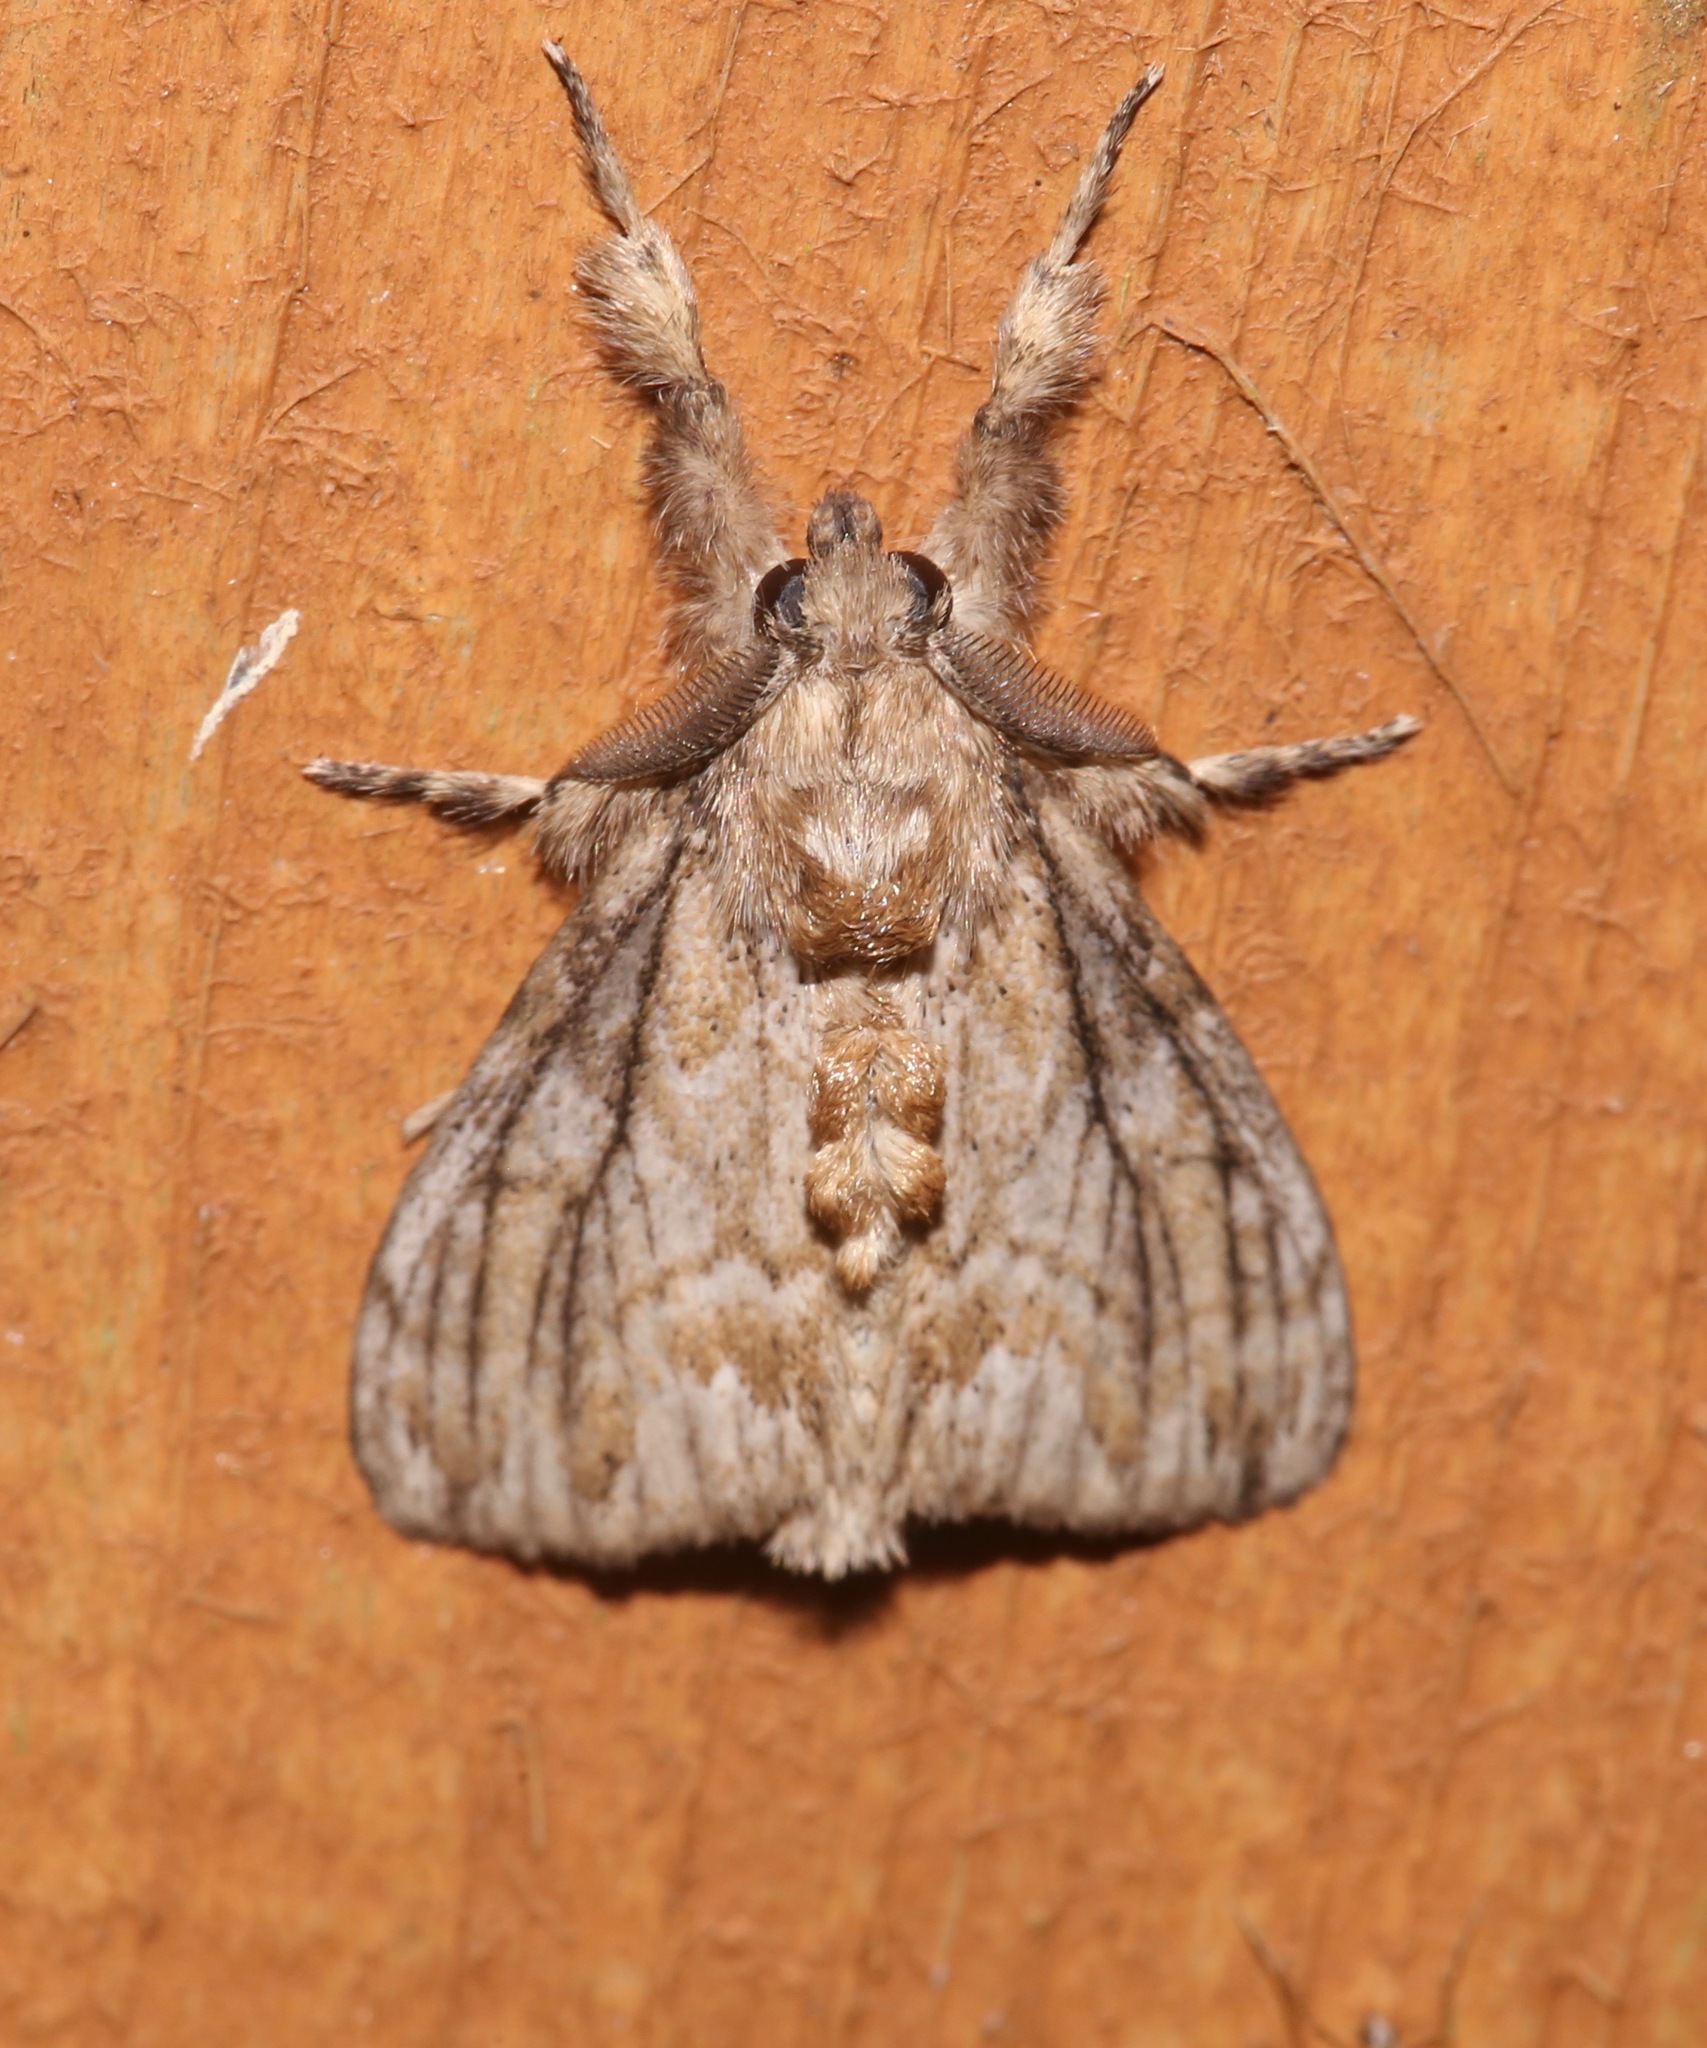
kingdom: Animalia
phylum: Arthropoda
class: Insecta
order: Lepidoptera
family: Erebidae
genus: Dasychira
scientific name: Dasychira atrivenosa
